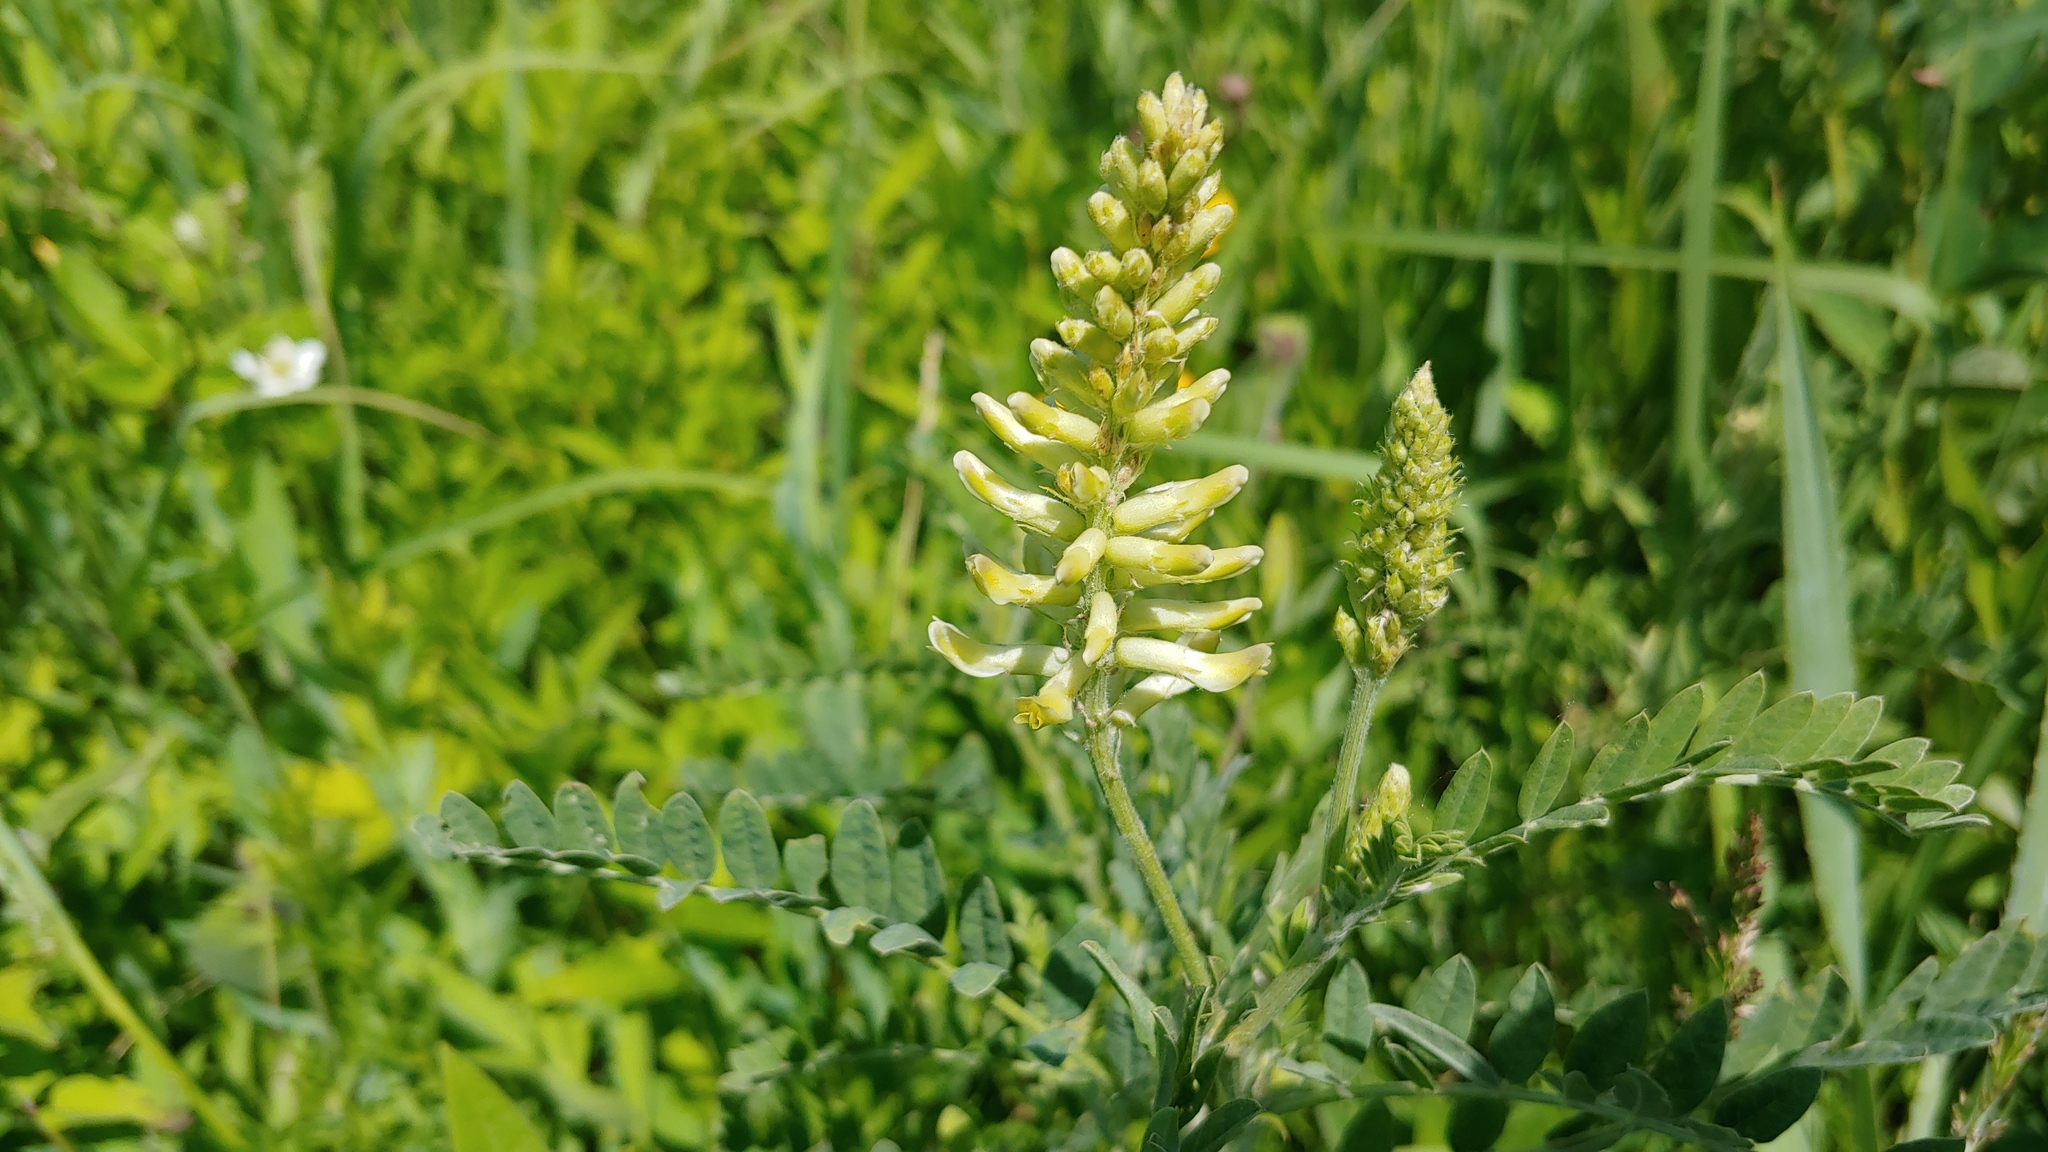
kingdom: Plantae
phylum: Tracheophyta
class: Magnoliopsida
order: Fabales
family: Fabaceae
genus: Astragalus
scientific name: Astragalus canadensis
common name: Canada milk-vetch
